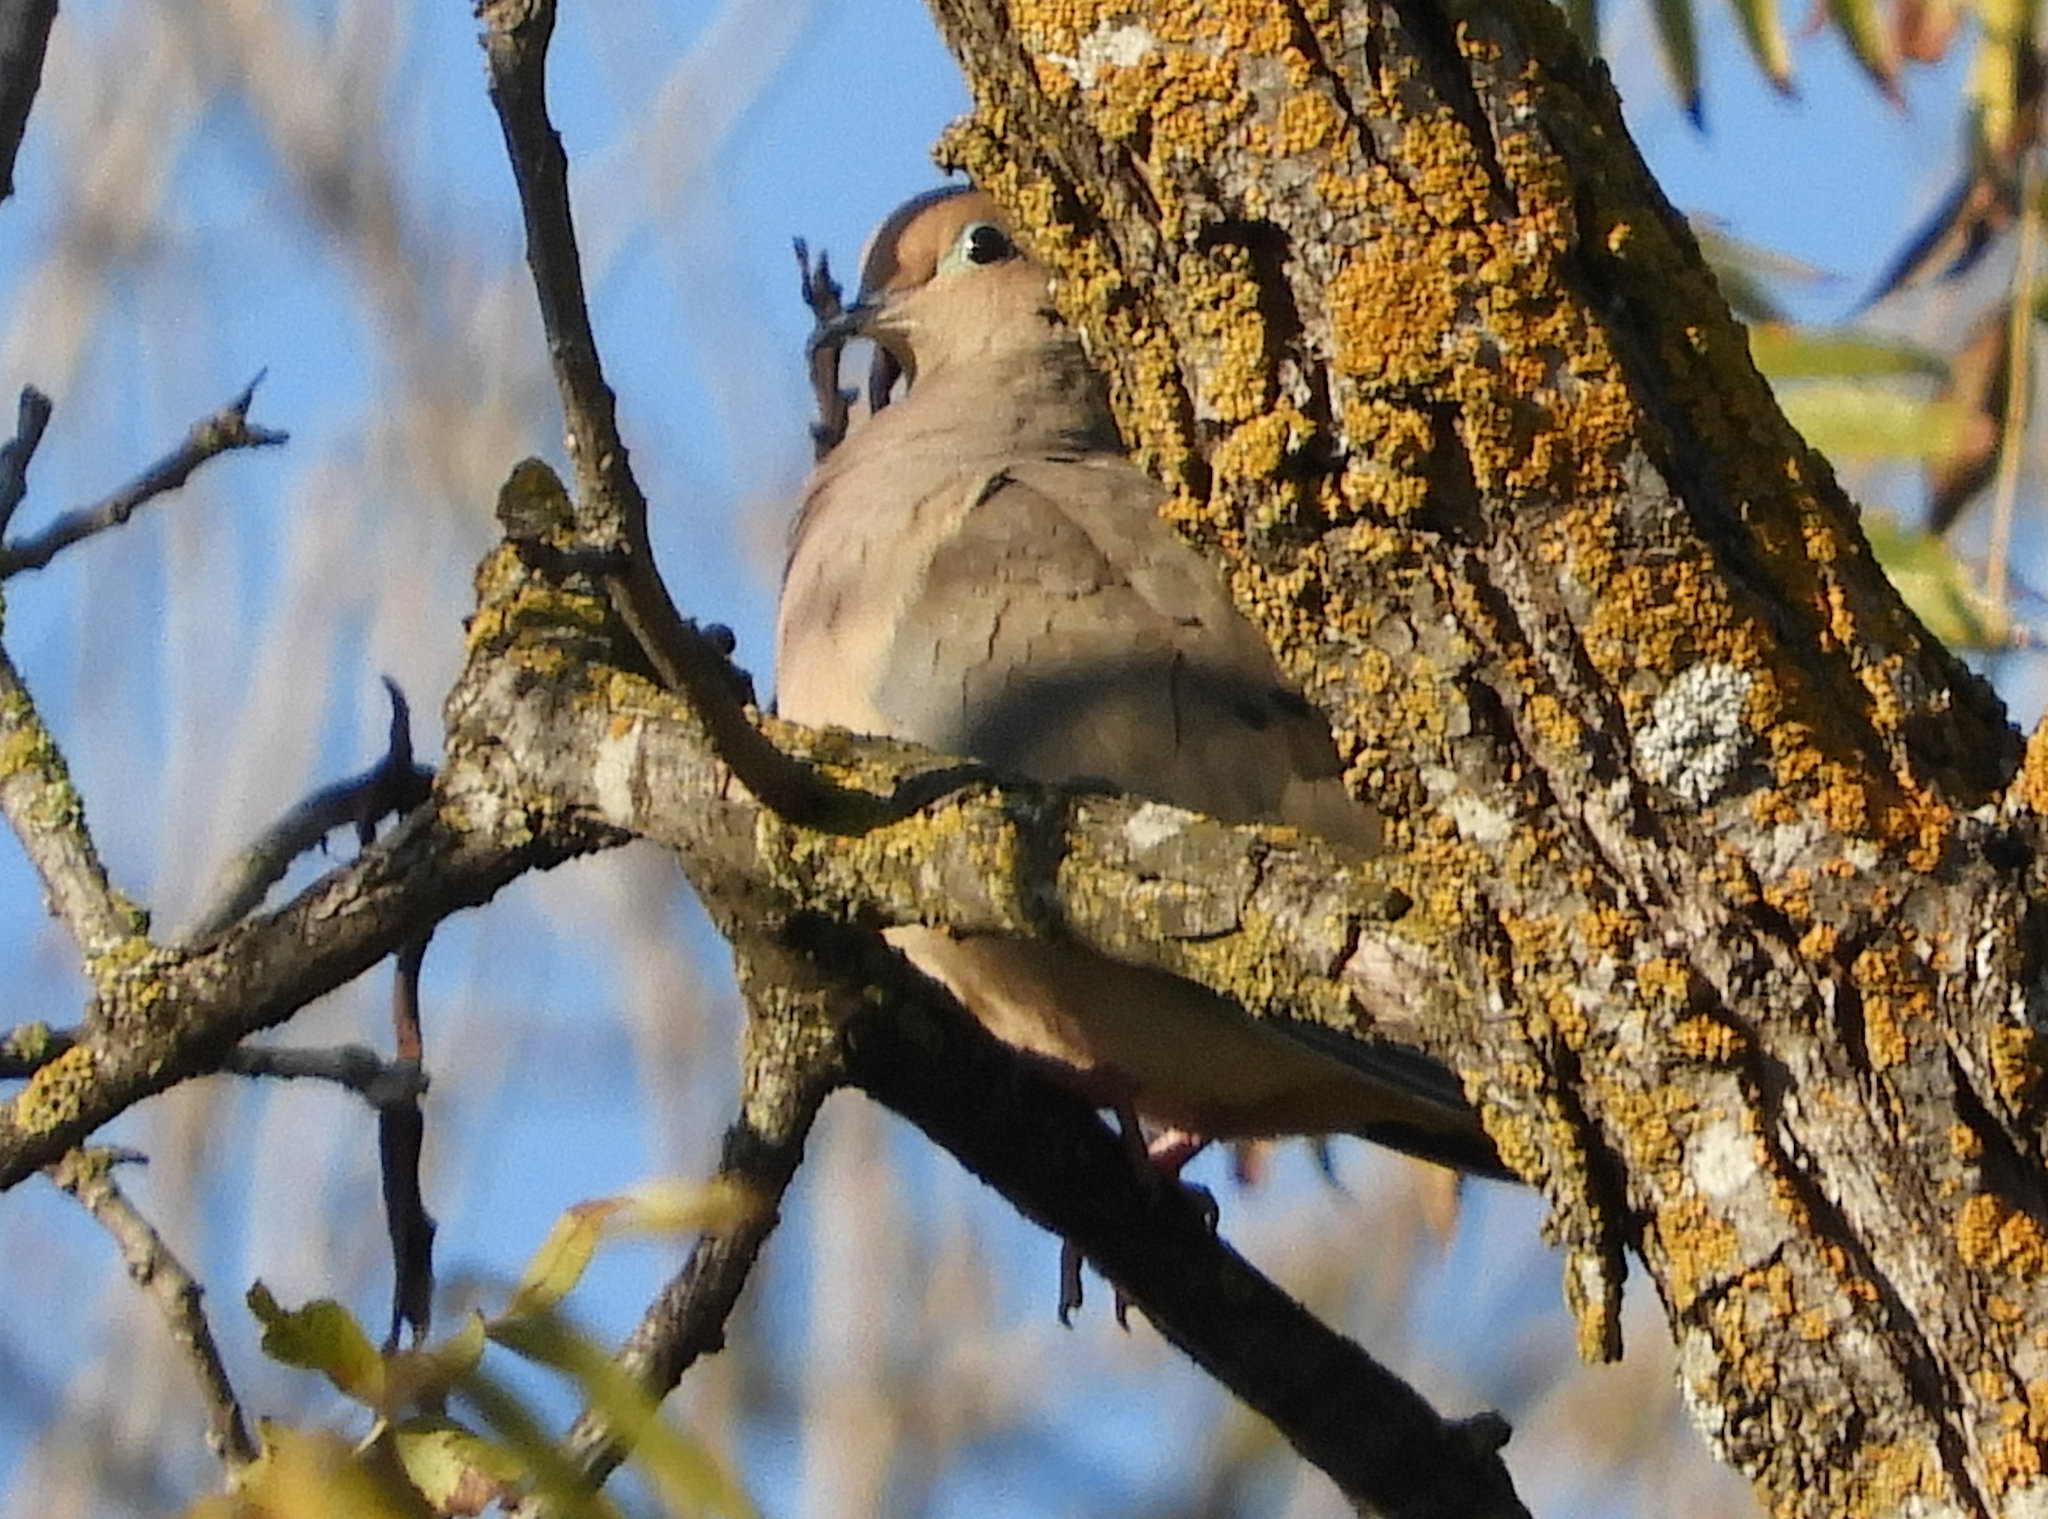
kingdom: Animalia
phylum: Chordata
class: Aves
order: Columbiformes
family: Columbidae
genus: Zenaida
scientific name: Zenaida macroura
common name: Mourning dove
